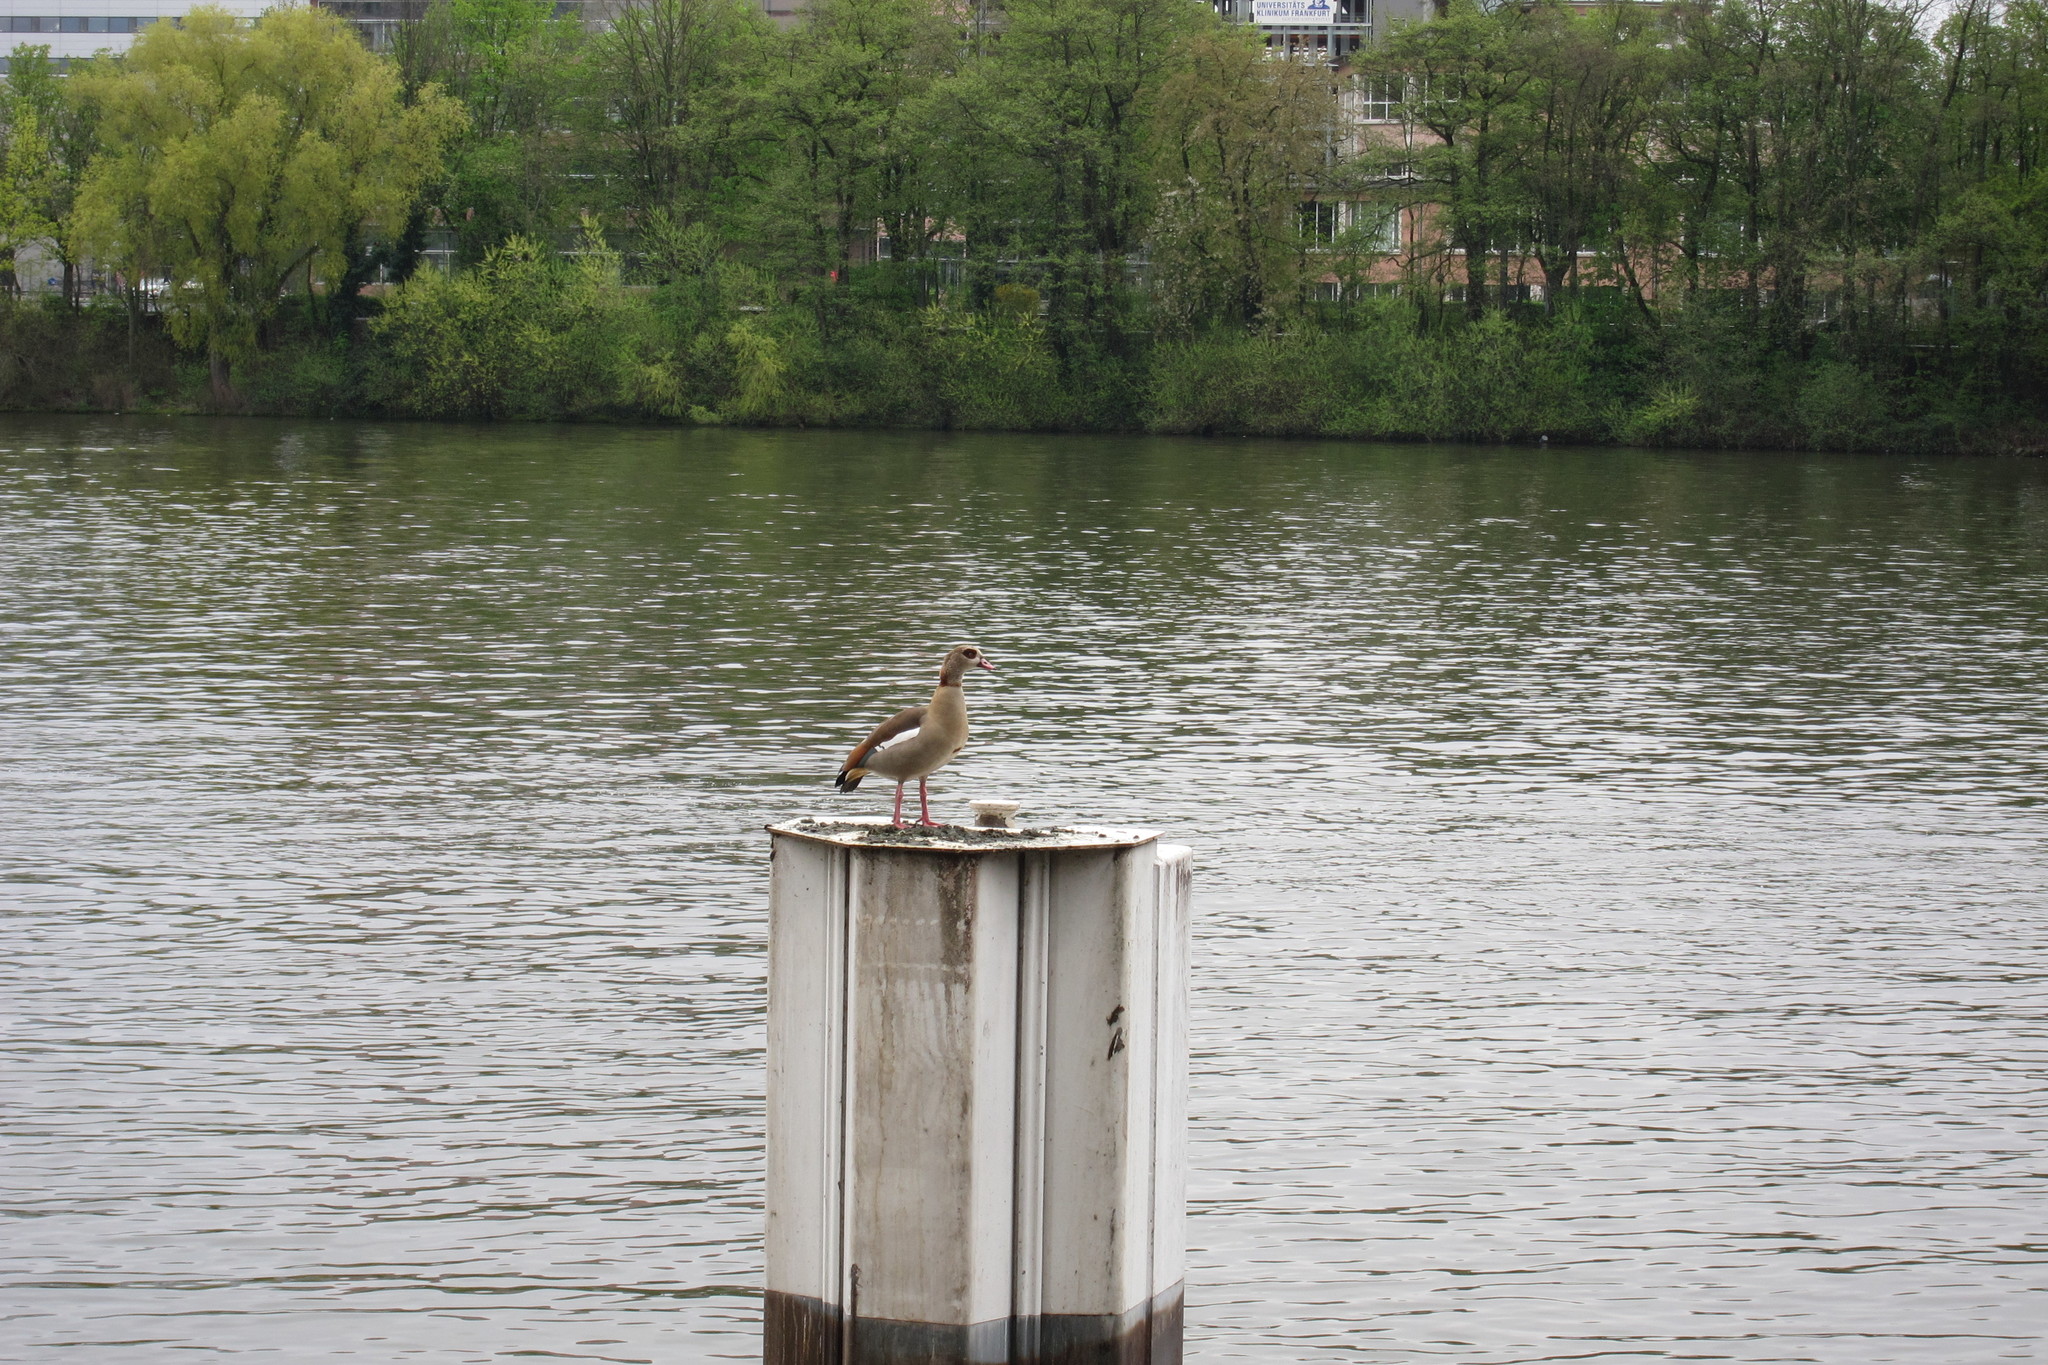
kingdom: Animalia
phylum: Chordata
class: Aves
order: Anseriformes
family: Anatidae
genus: Alopochen
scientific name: Alopochen aegyptiaca
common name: Egyptian goose
